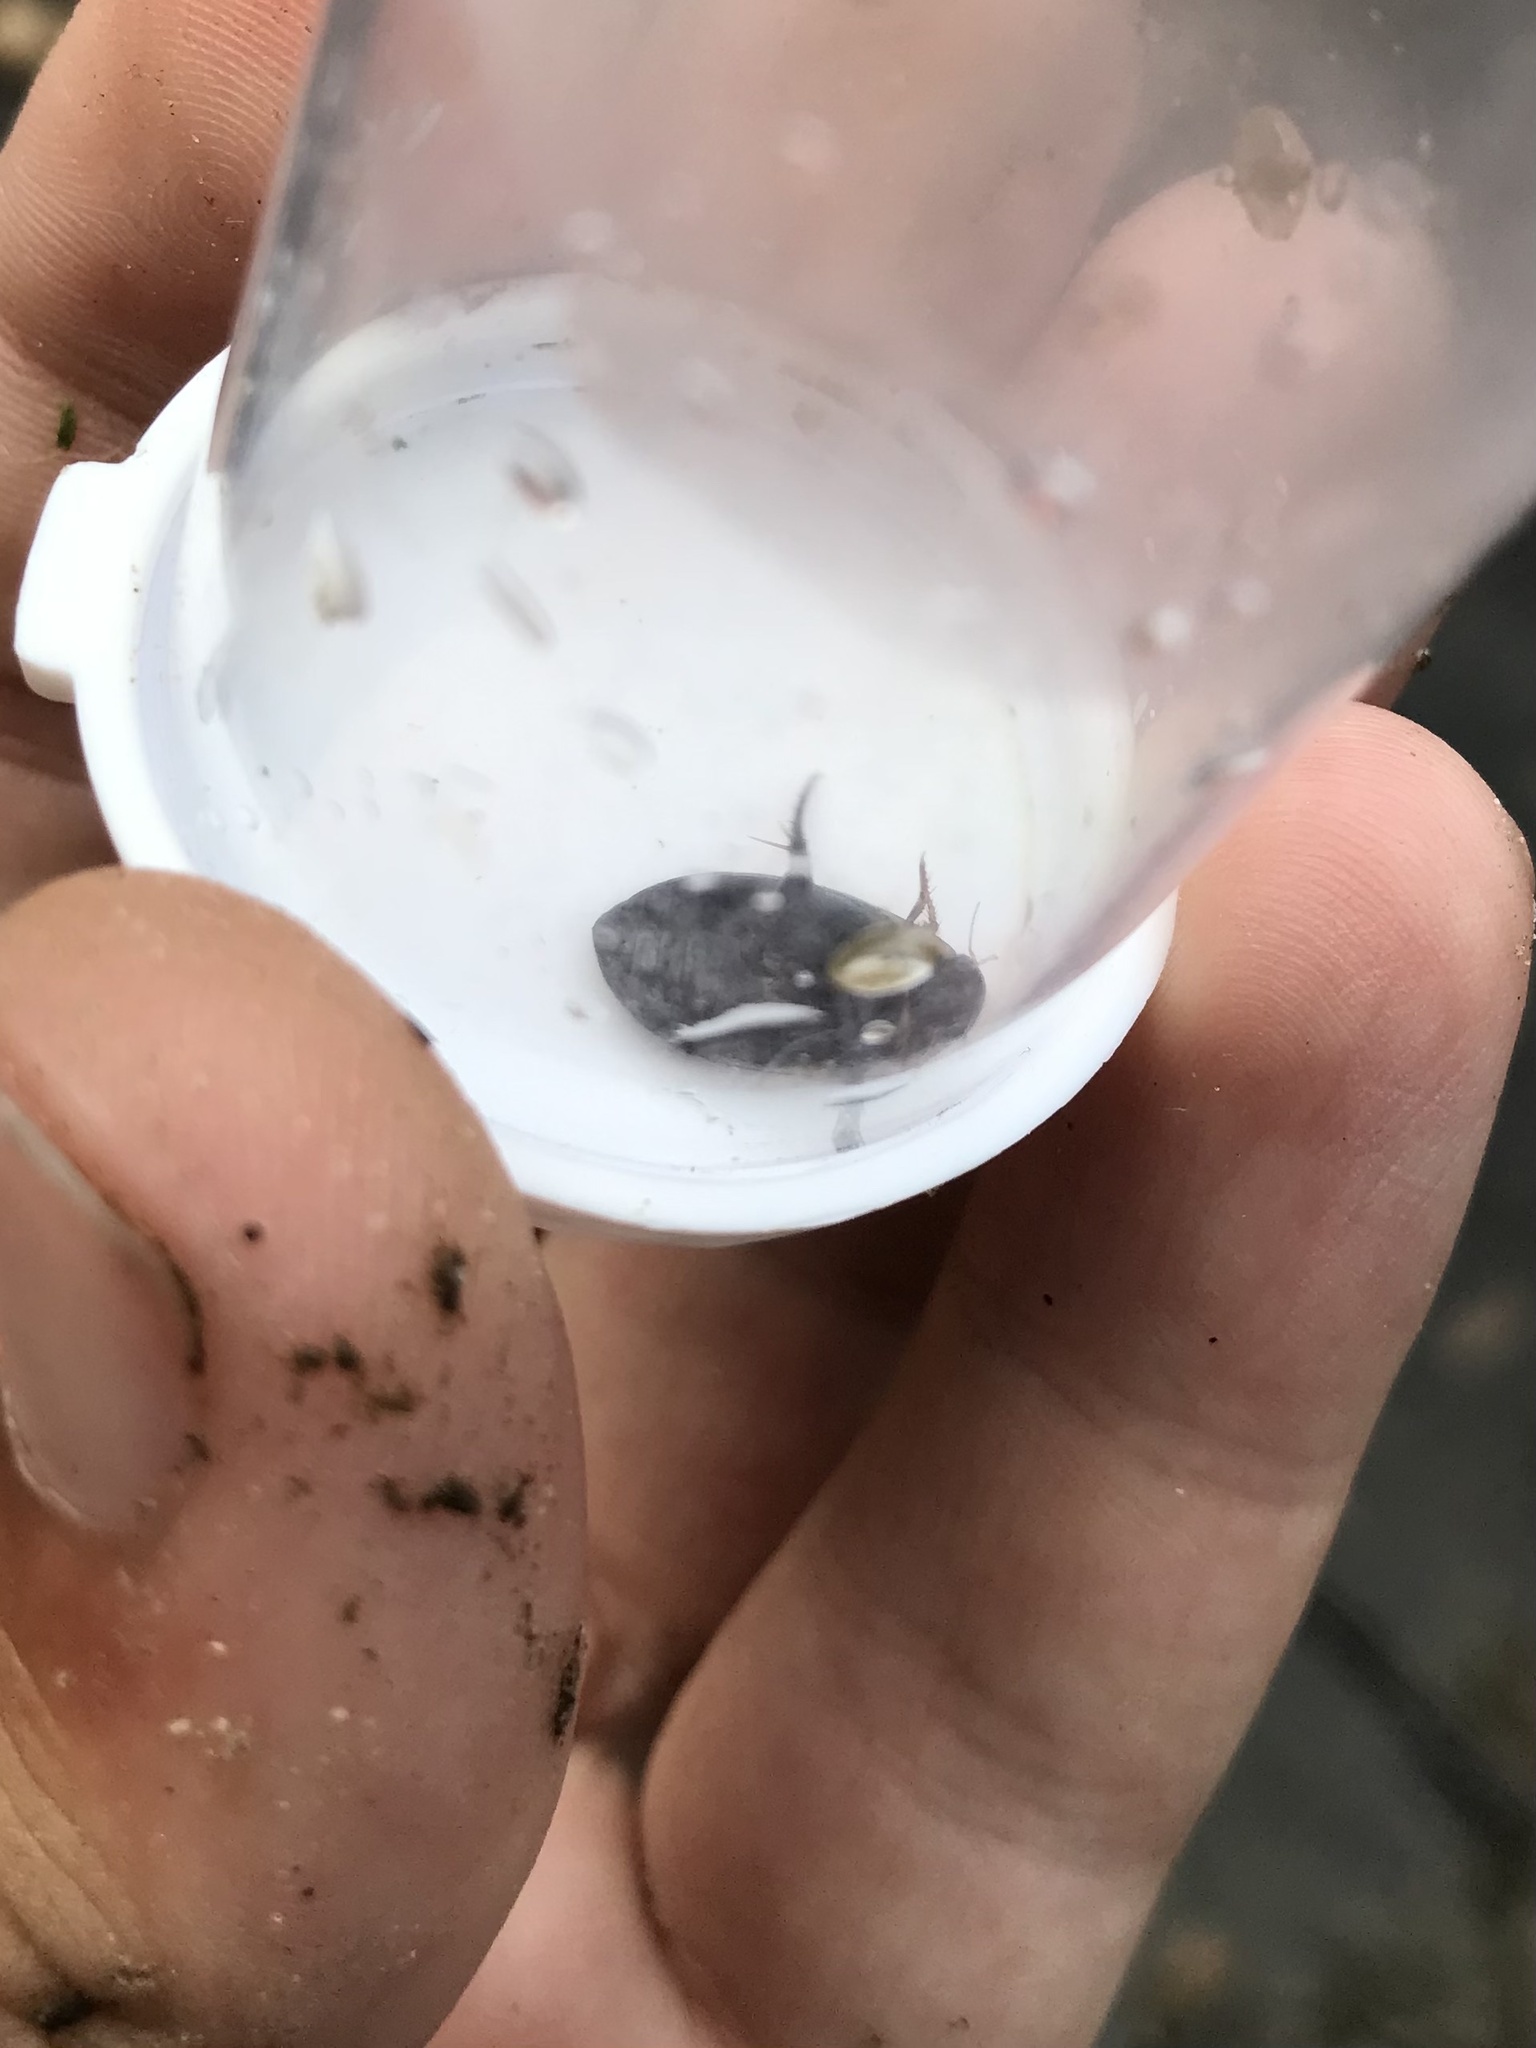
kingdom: Animalia
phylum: Arthropoda
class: Insecta
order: Coleoptera
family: Dytiscidae
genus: Acilius
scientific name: Acilius mediatus
